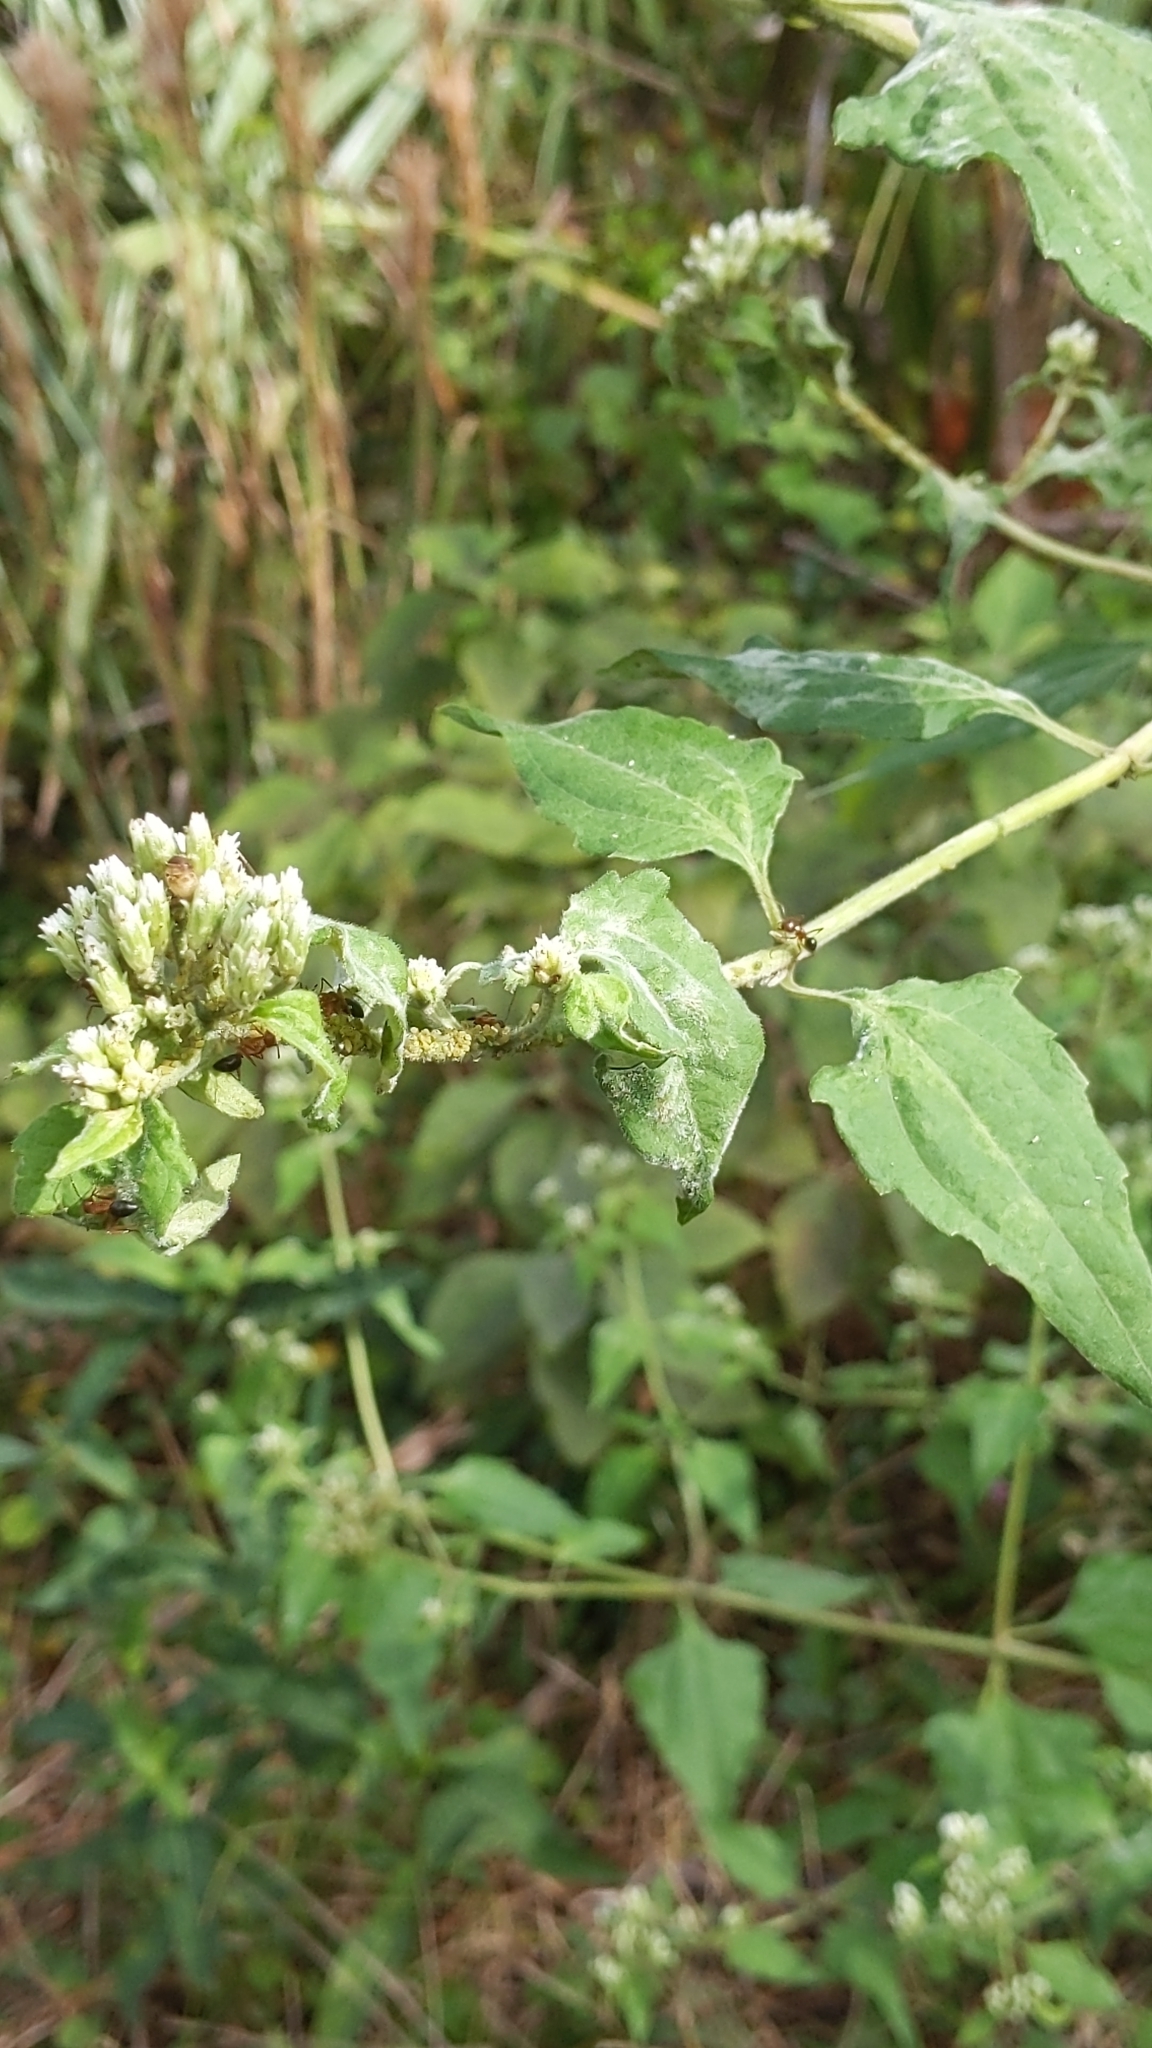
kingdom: Plantae
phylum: Tracheophyta
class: Magnoliopsida
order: Asterales
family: Asteraceae
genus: Chromolaena
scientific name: Chromolaena odorata
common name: Siamweed
